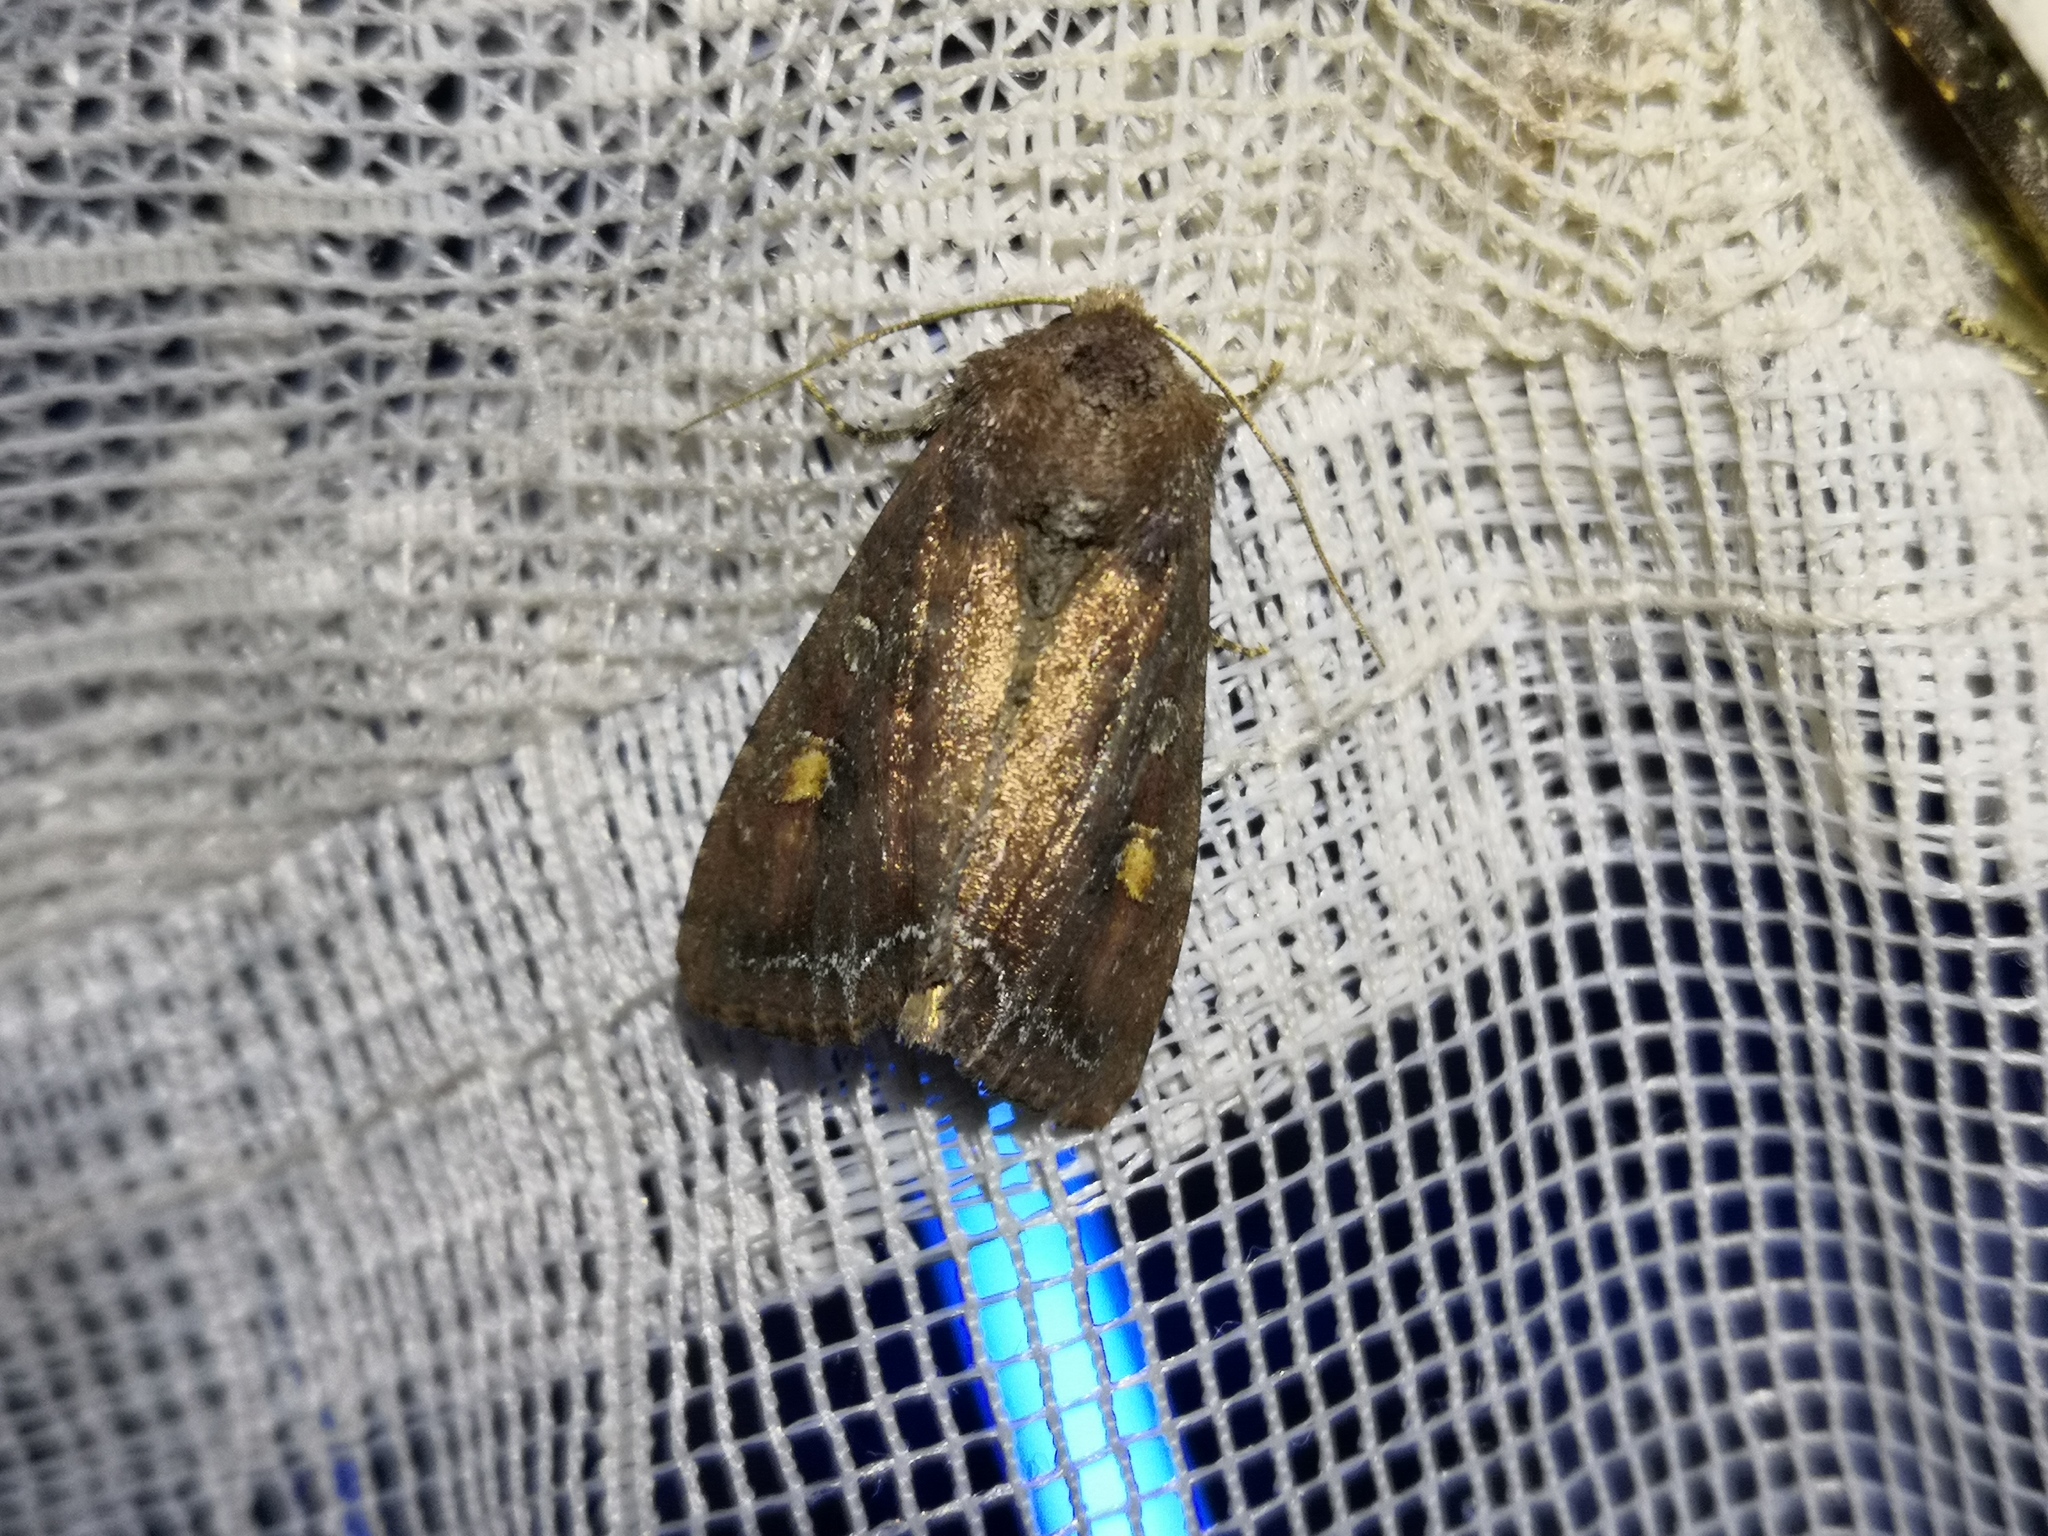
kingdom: Animalia
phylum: Arthropoda
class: Insecta
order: Lepidoptera
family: Noctuidae
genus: Lacanobia
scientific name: Lacanobia oleracea
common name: Bright-line brown-eye
